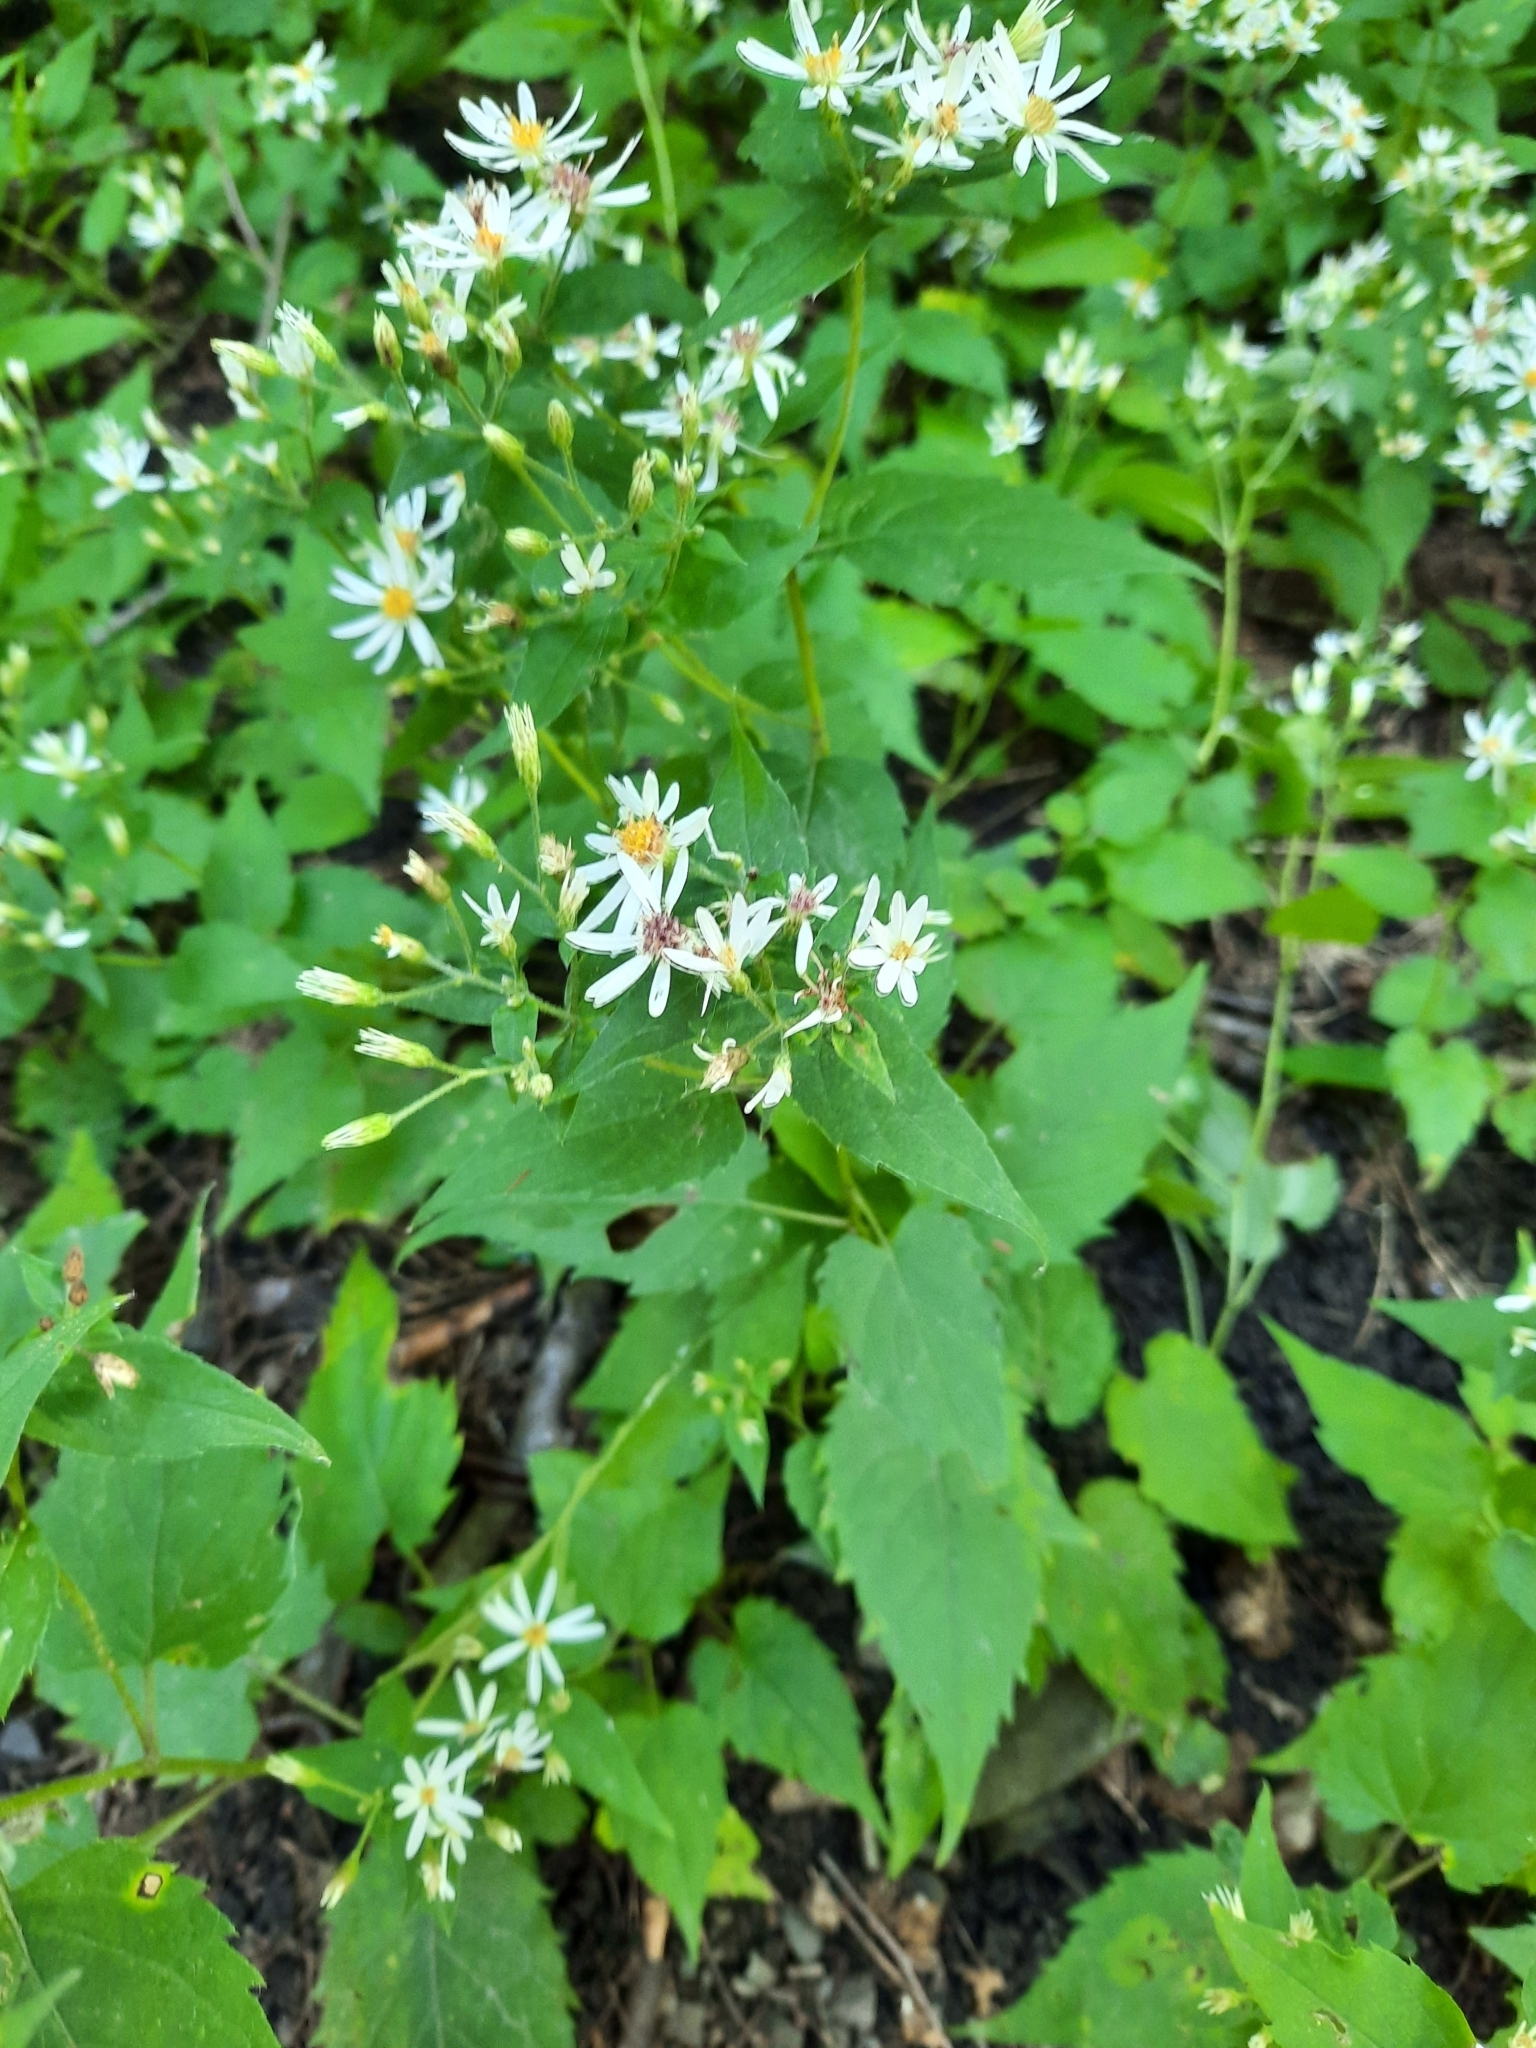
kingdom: Plantae
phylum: Tracheophyta
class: Magnoliopsida
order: Asterales
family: Asteraceae
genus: Eurybia
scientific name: Eurybia divaricata
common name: White wood aster
